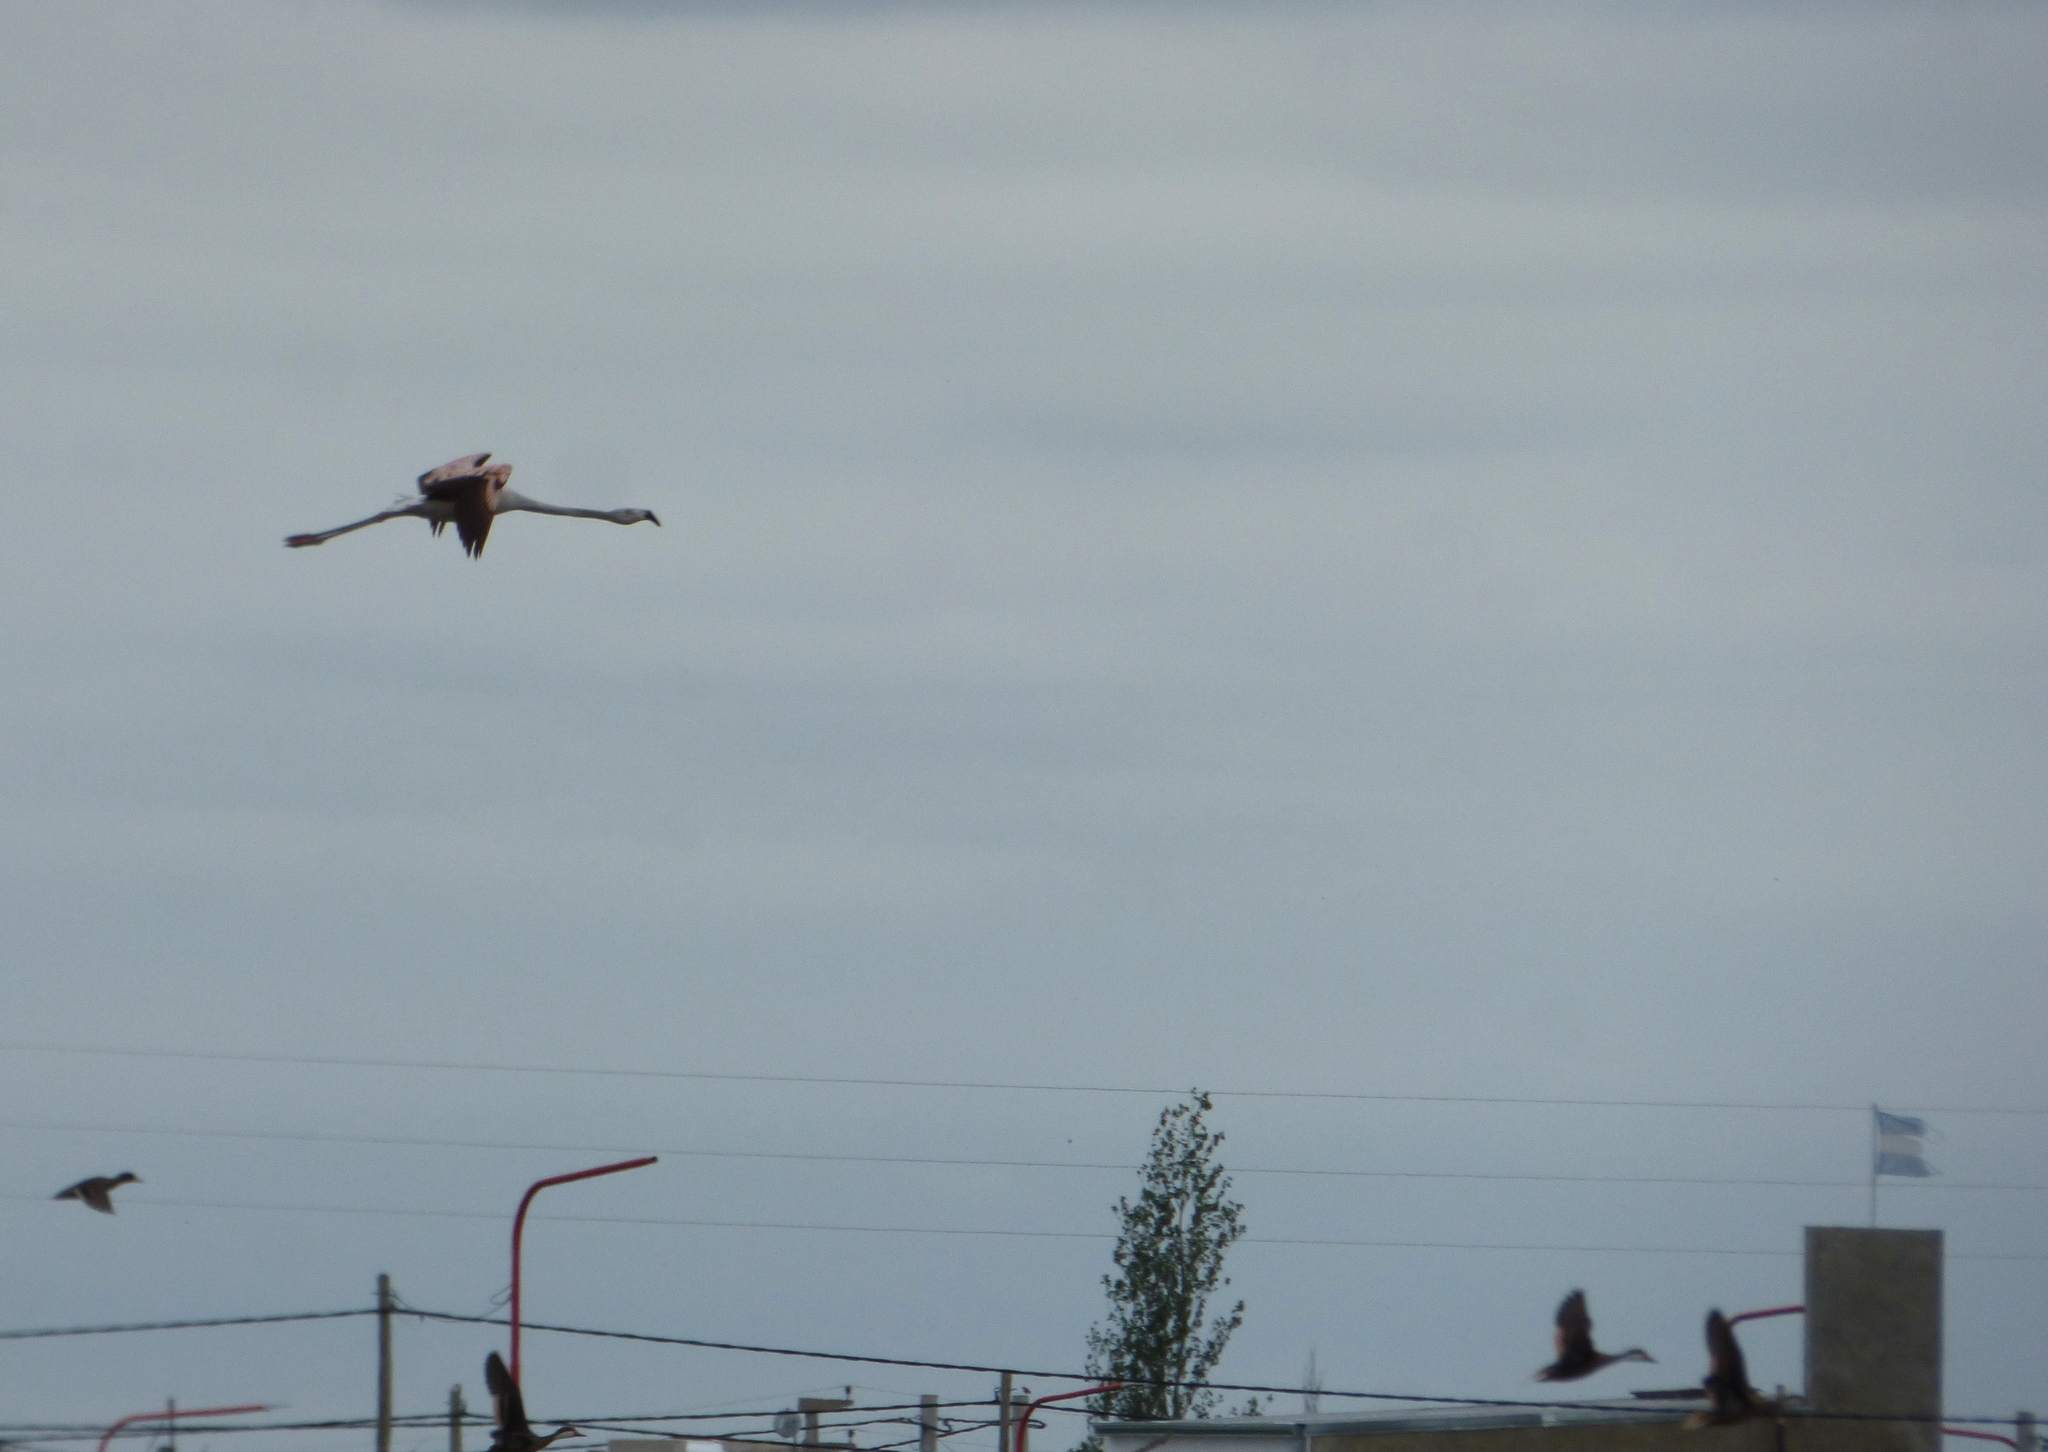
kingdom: Animalia
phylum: Chordata
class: Aves
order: Phoenicopteriformes
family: Phoenicopteridae
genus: Phoenicopterus
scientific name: Phoenicopterus chilensis
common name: Chilean flamingo
